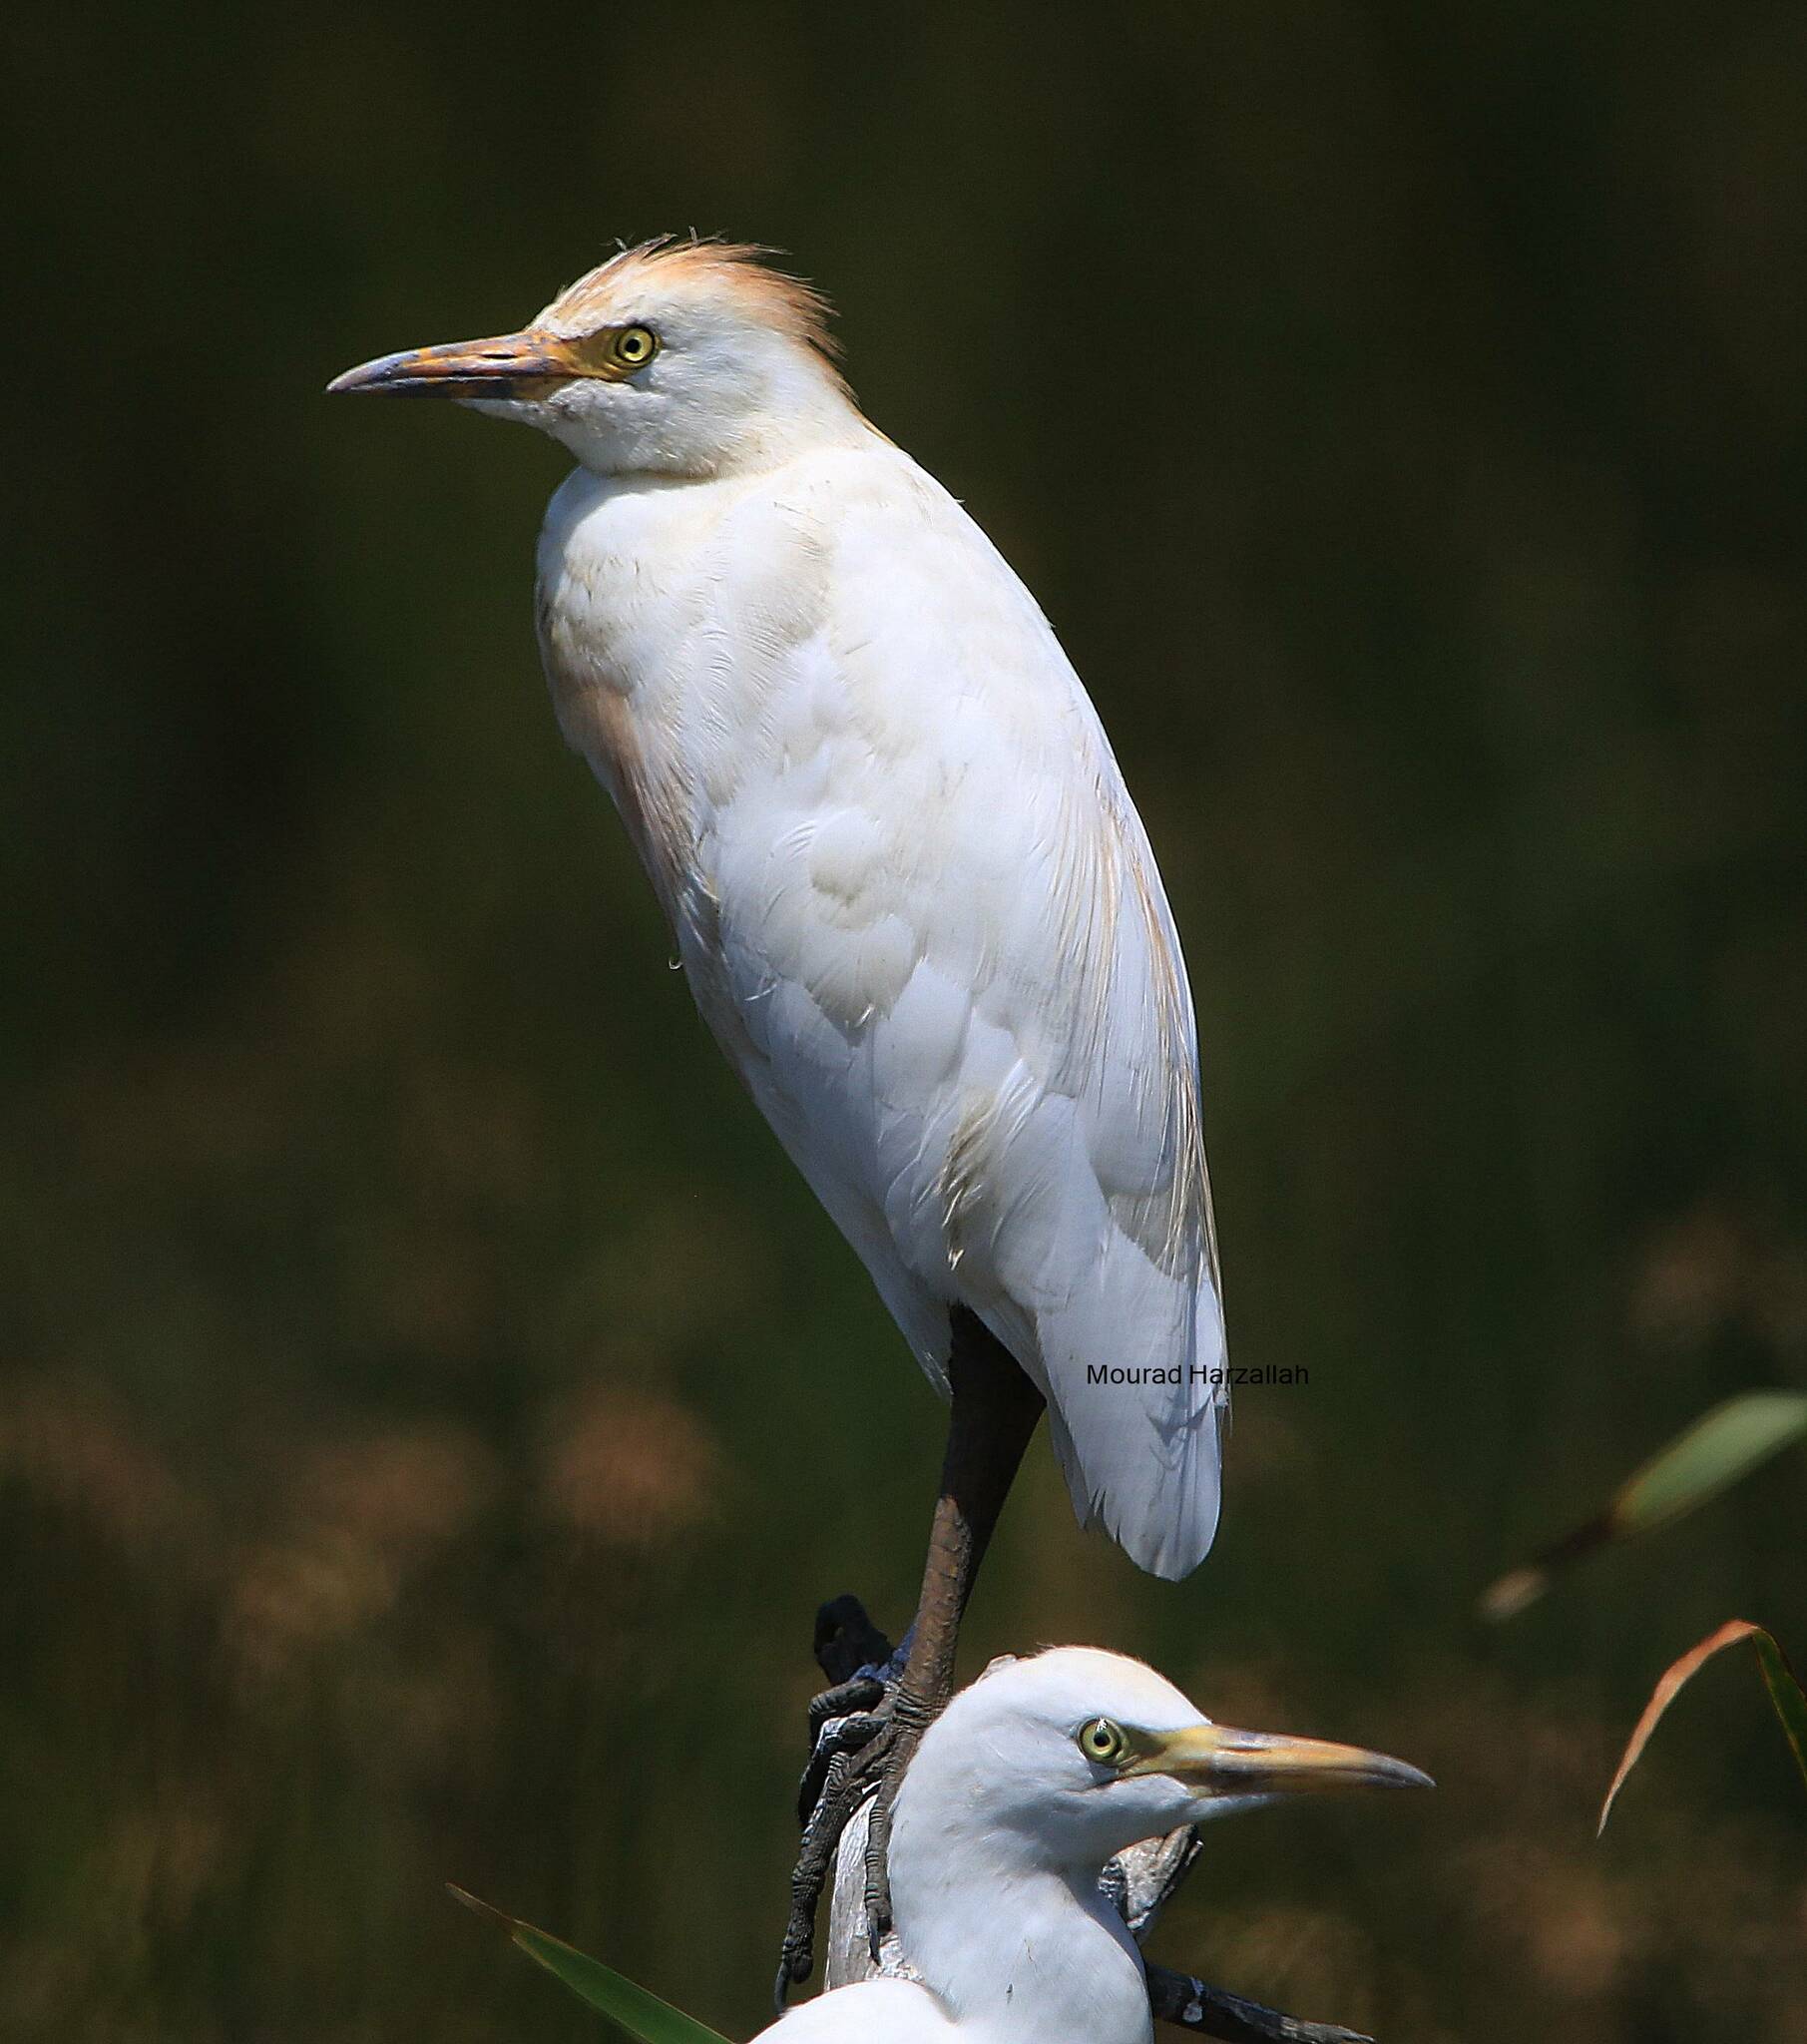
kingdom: Animalia
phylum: Chordata
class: Aves
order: Pelecaniformes
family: Ardeidae
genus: Bubulcus
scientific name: Bubulcus ibis
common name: Cattle egret
